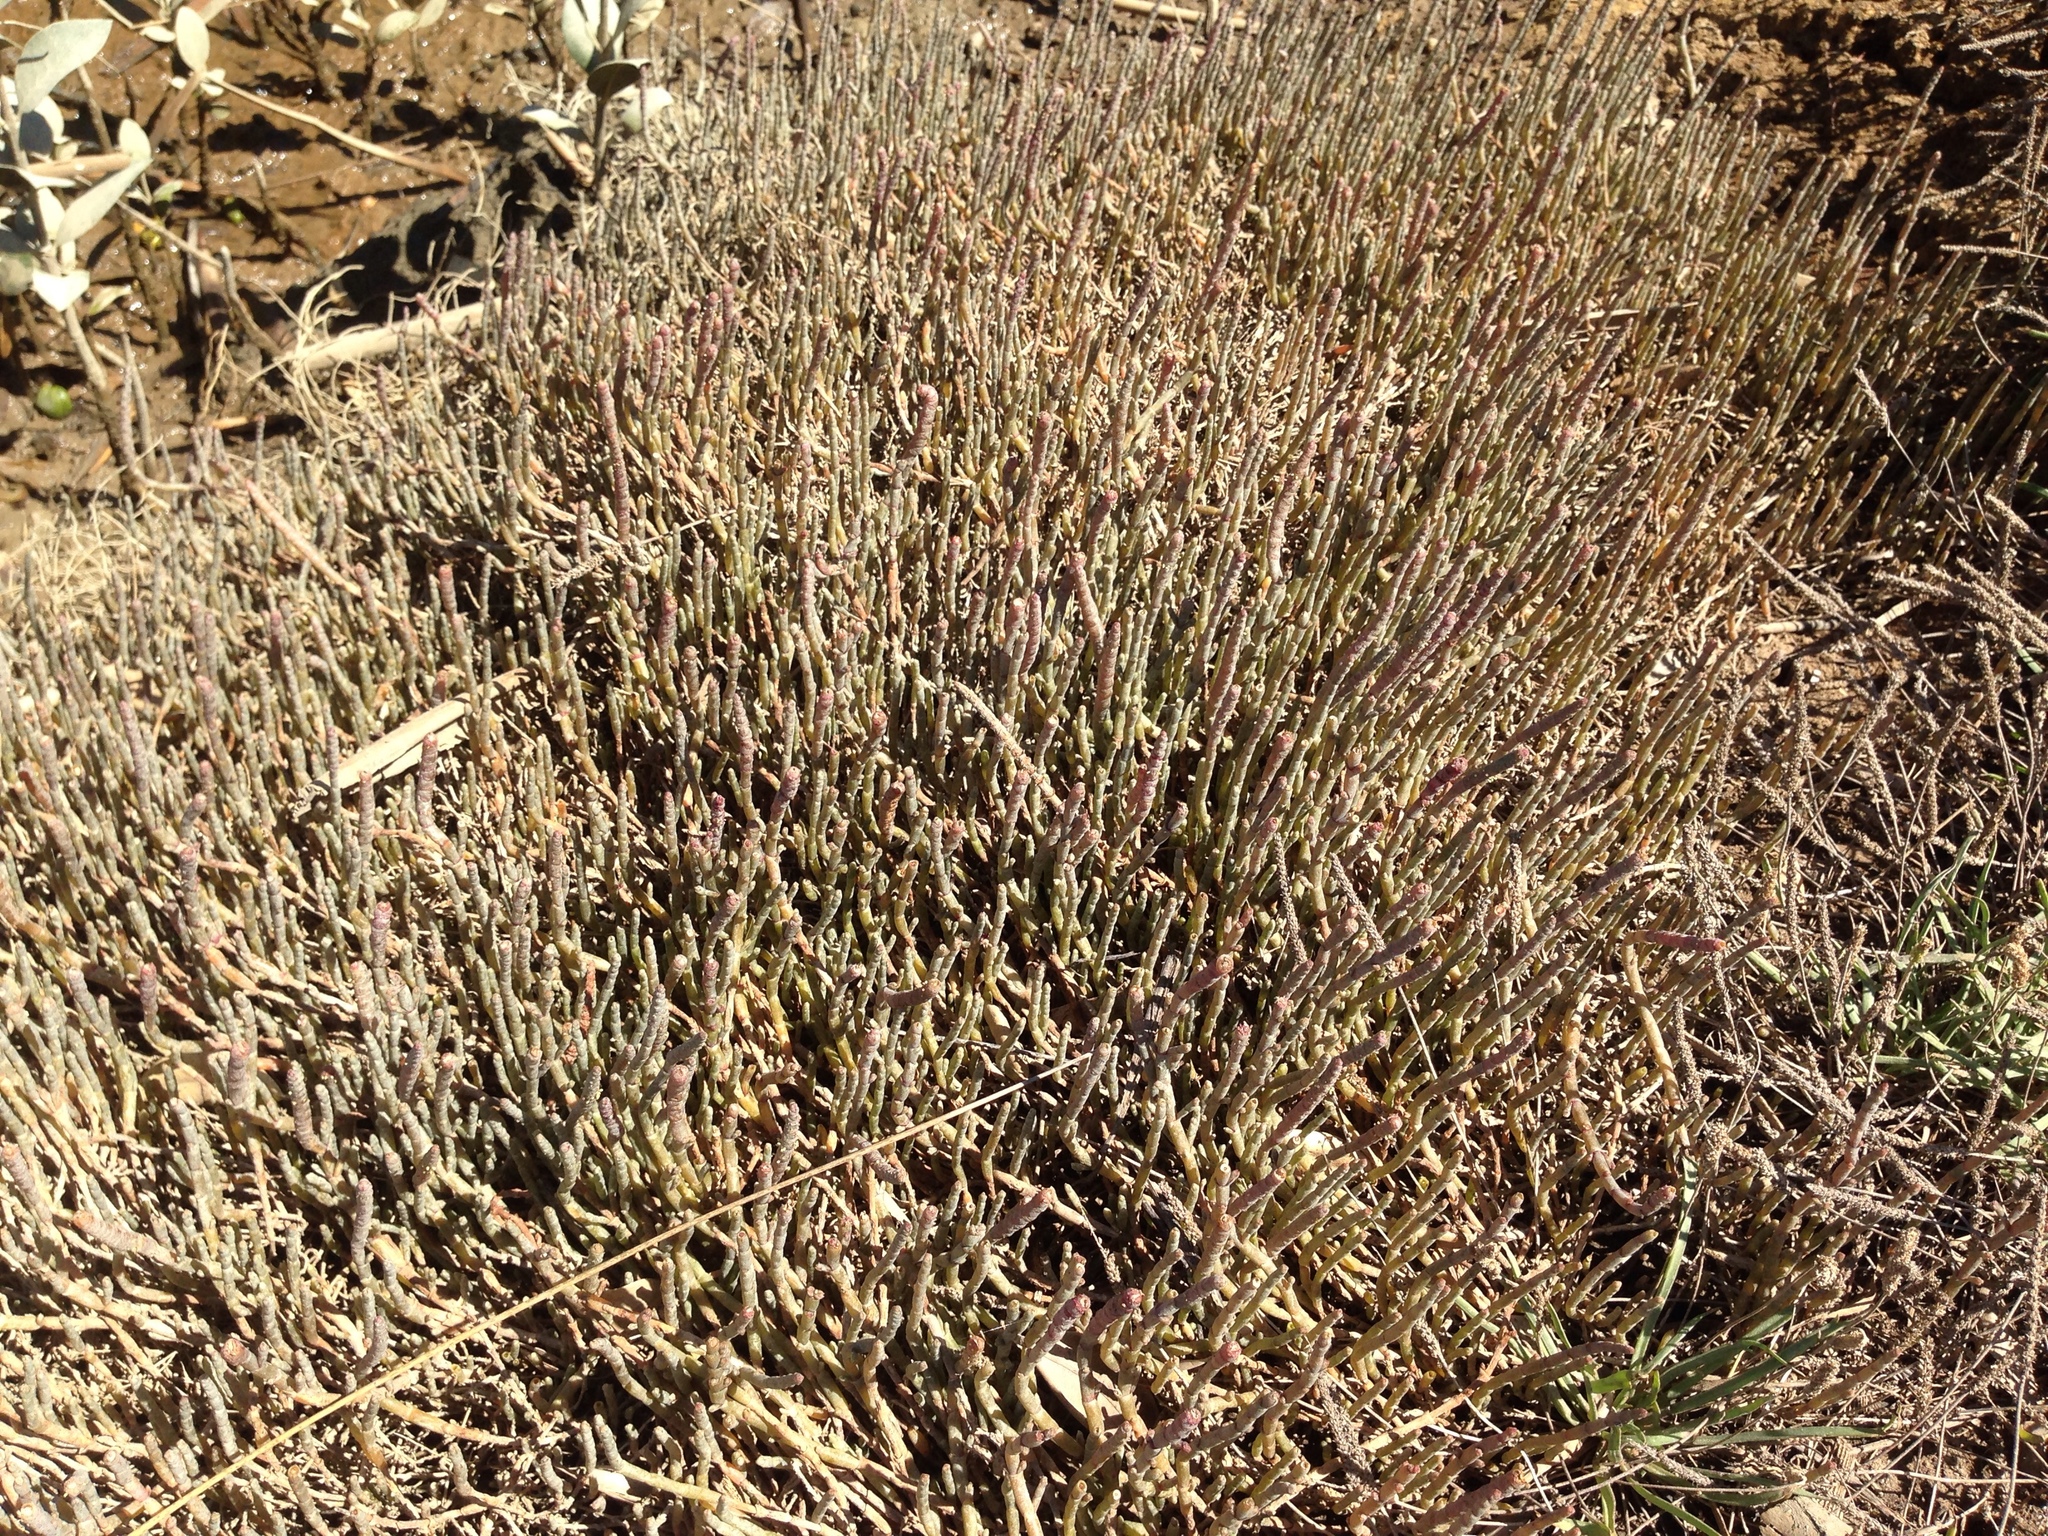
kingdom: Plantae
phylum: Tracheophyta
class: Magnoliopsida
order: Caryophyllales
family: Amaranthaceae
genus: Salicornia
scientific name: Salicornia quinqueflora
